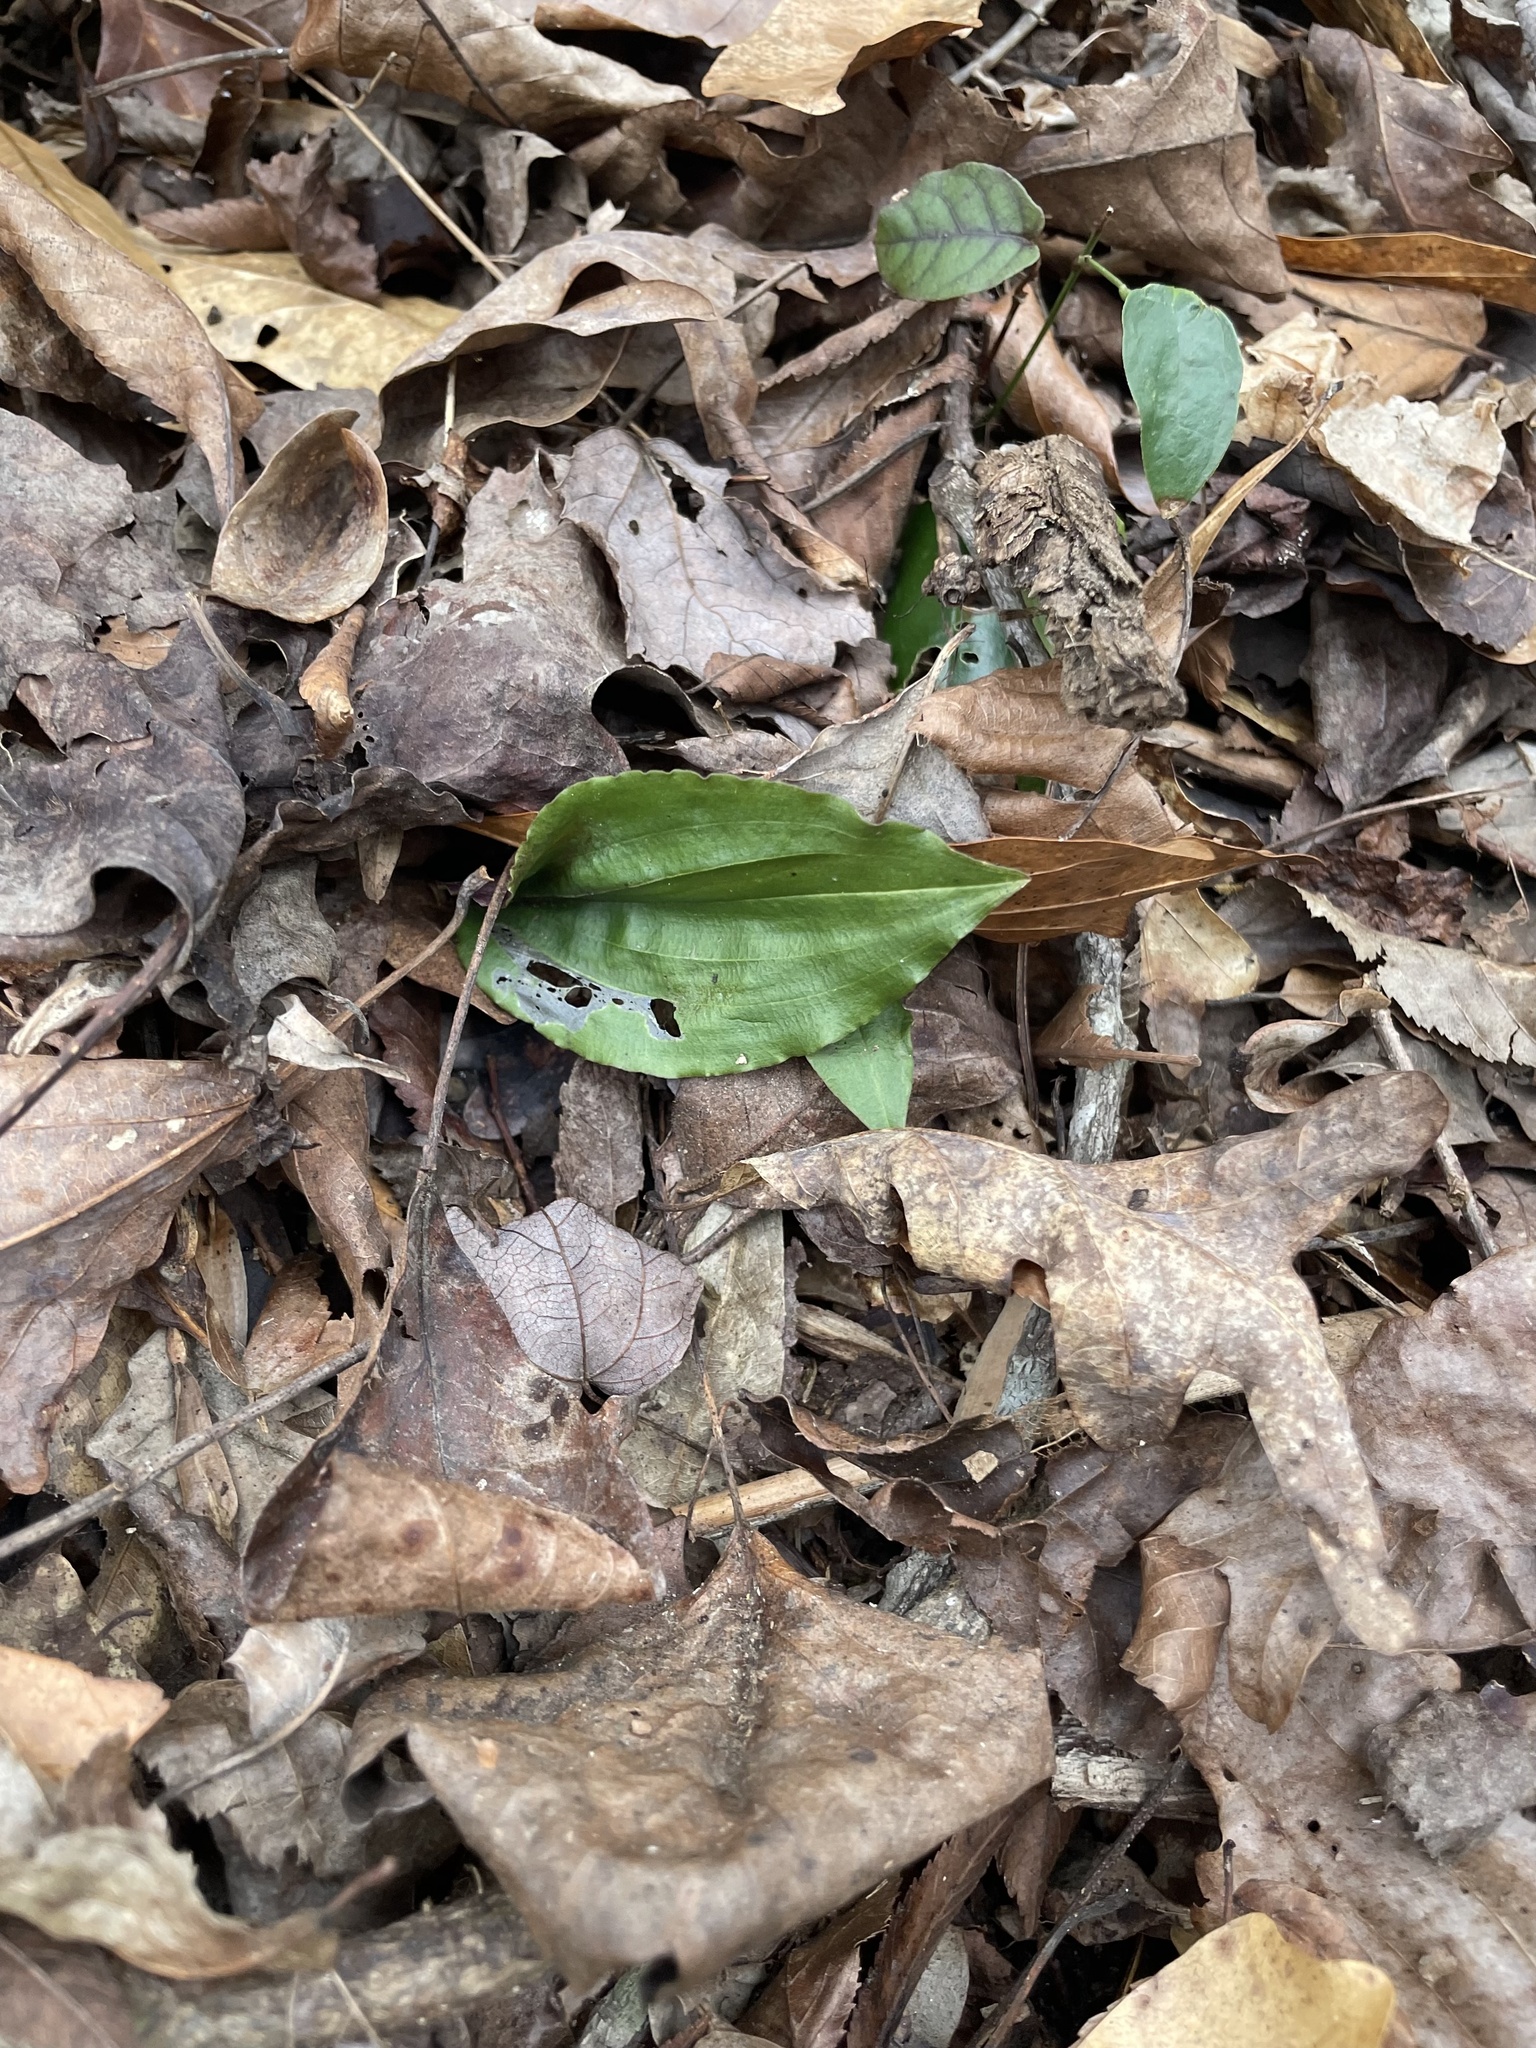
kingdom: Plantae
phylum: Tracheophyta
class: Liliopsida
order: Asparagales
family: Orchidaceae
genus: Tipularia
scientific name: Tipularia discolor
